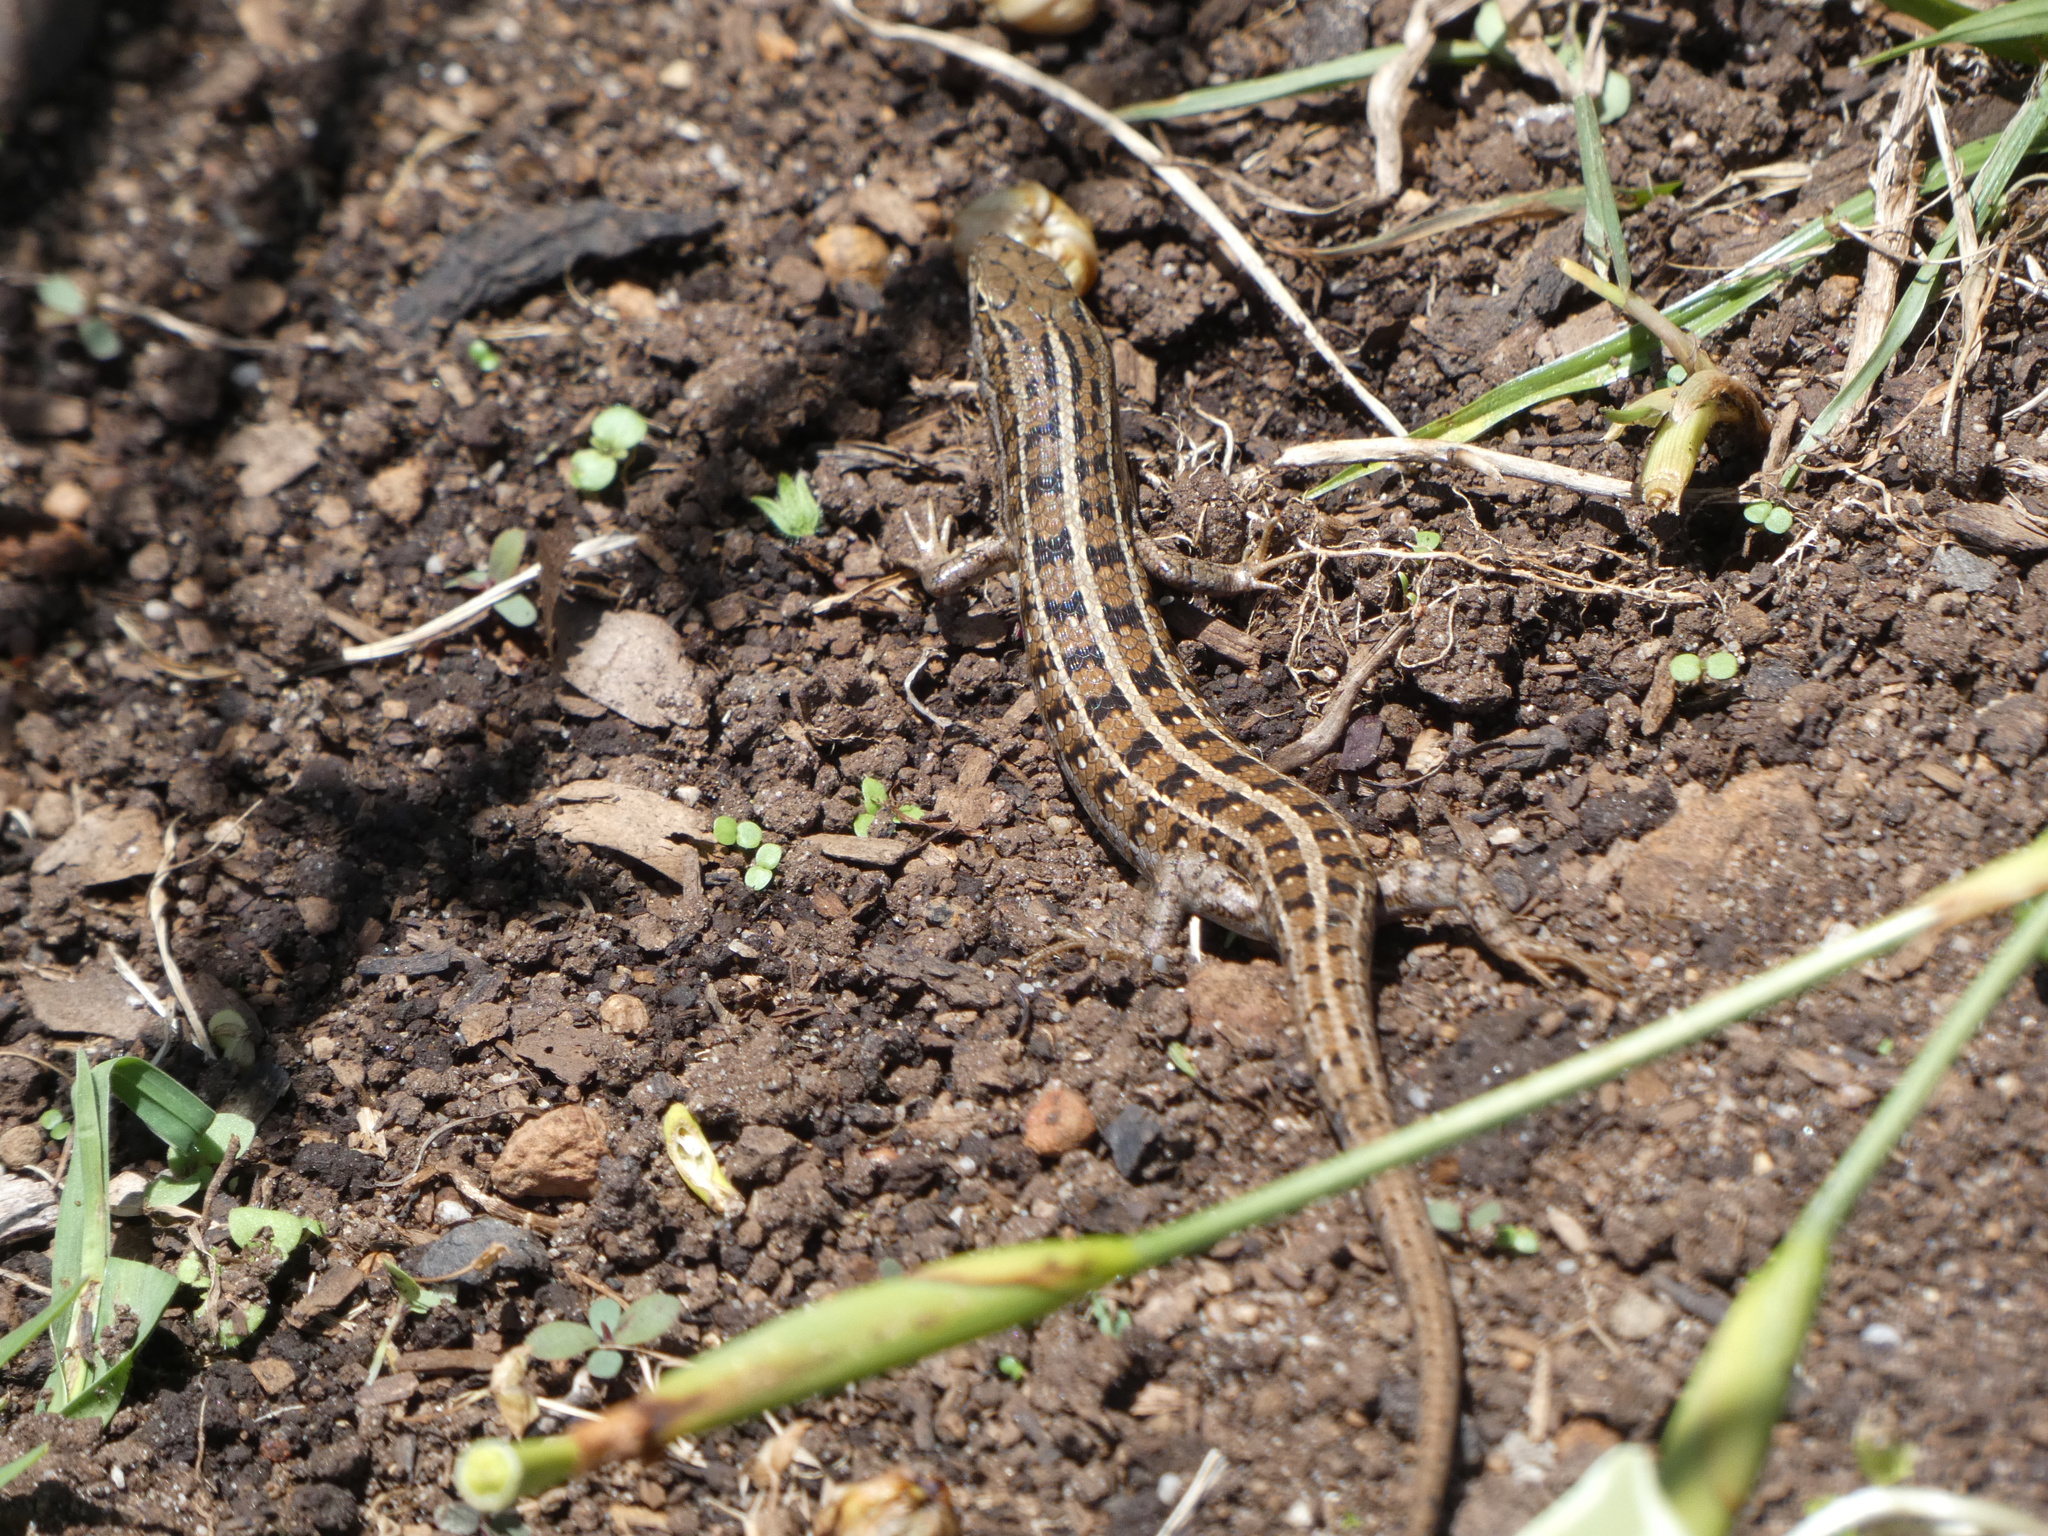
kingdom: Animalia
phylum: Chordata
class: Squamata
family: Scincidae
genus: Trachylepis
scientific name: Trachylepis capensis
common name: Cape skink
